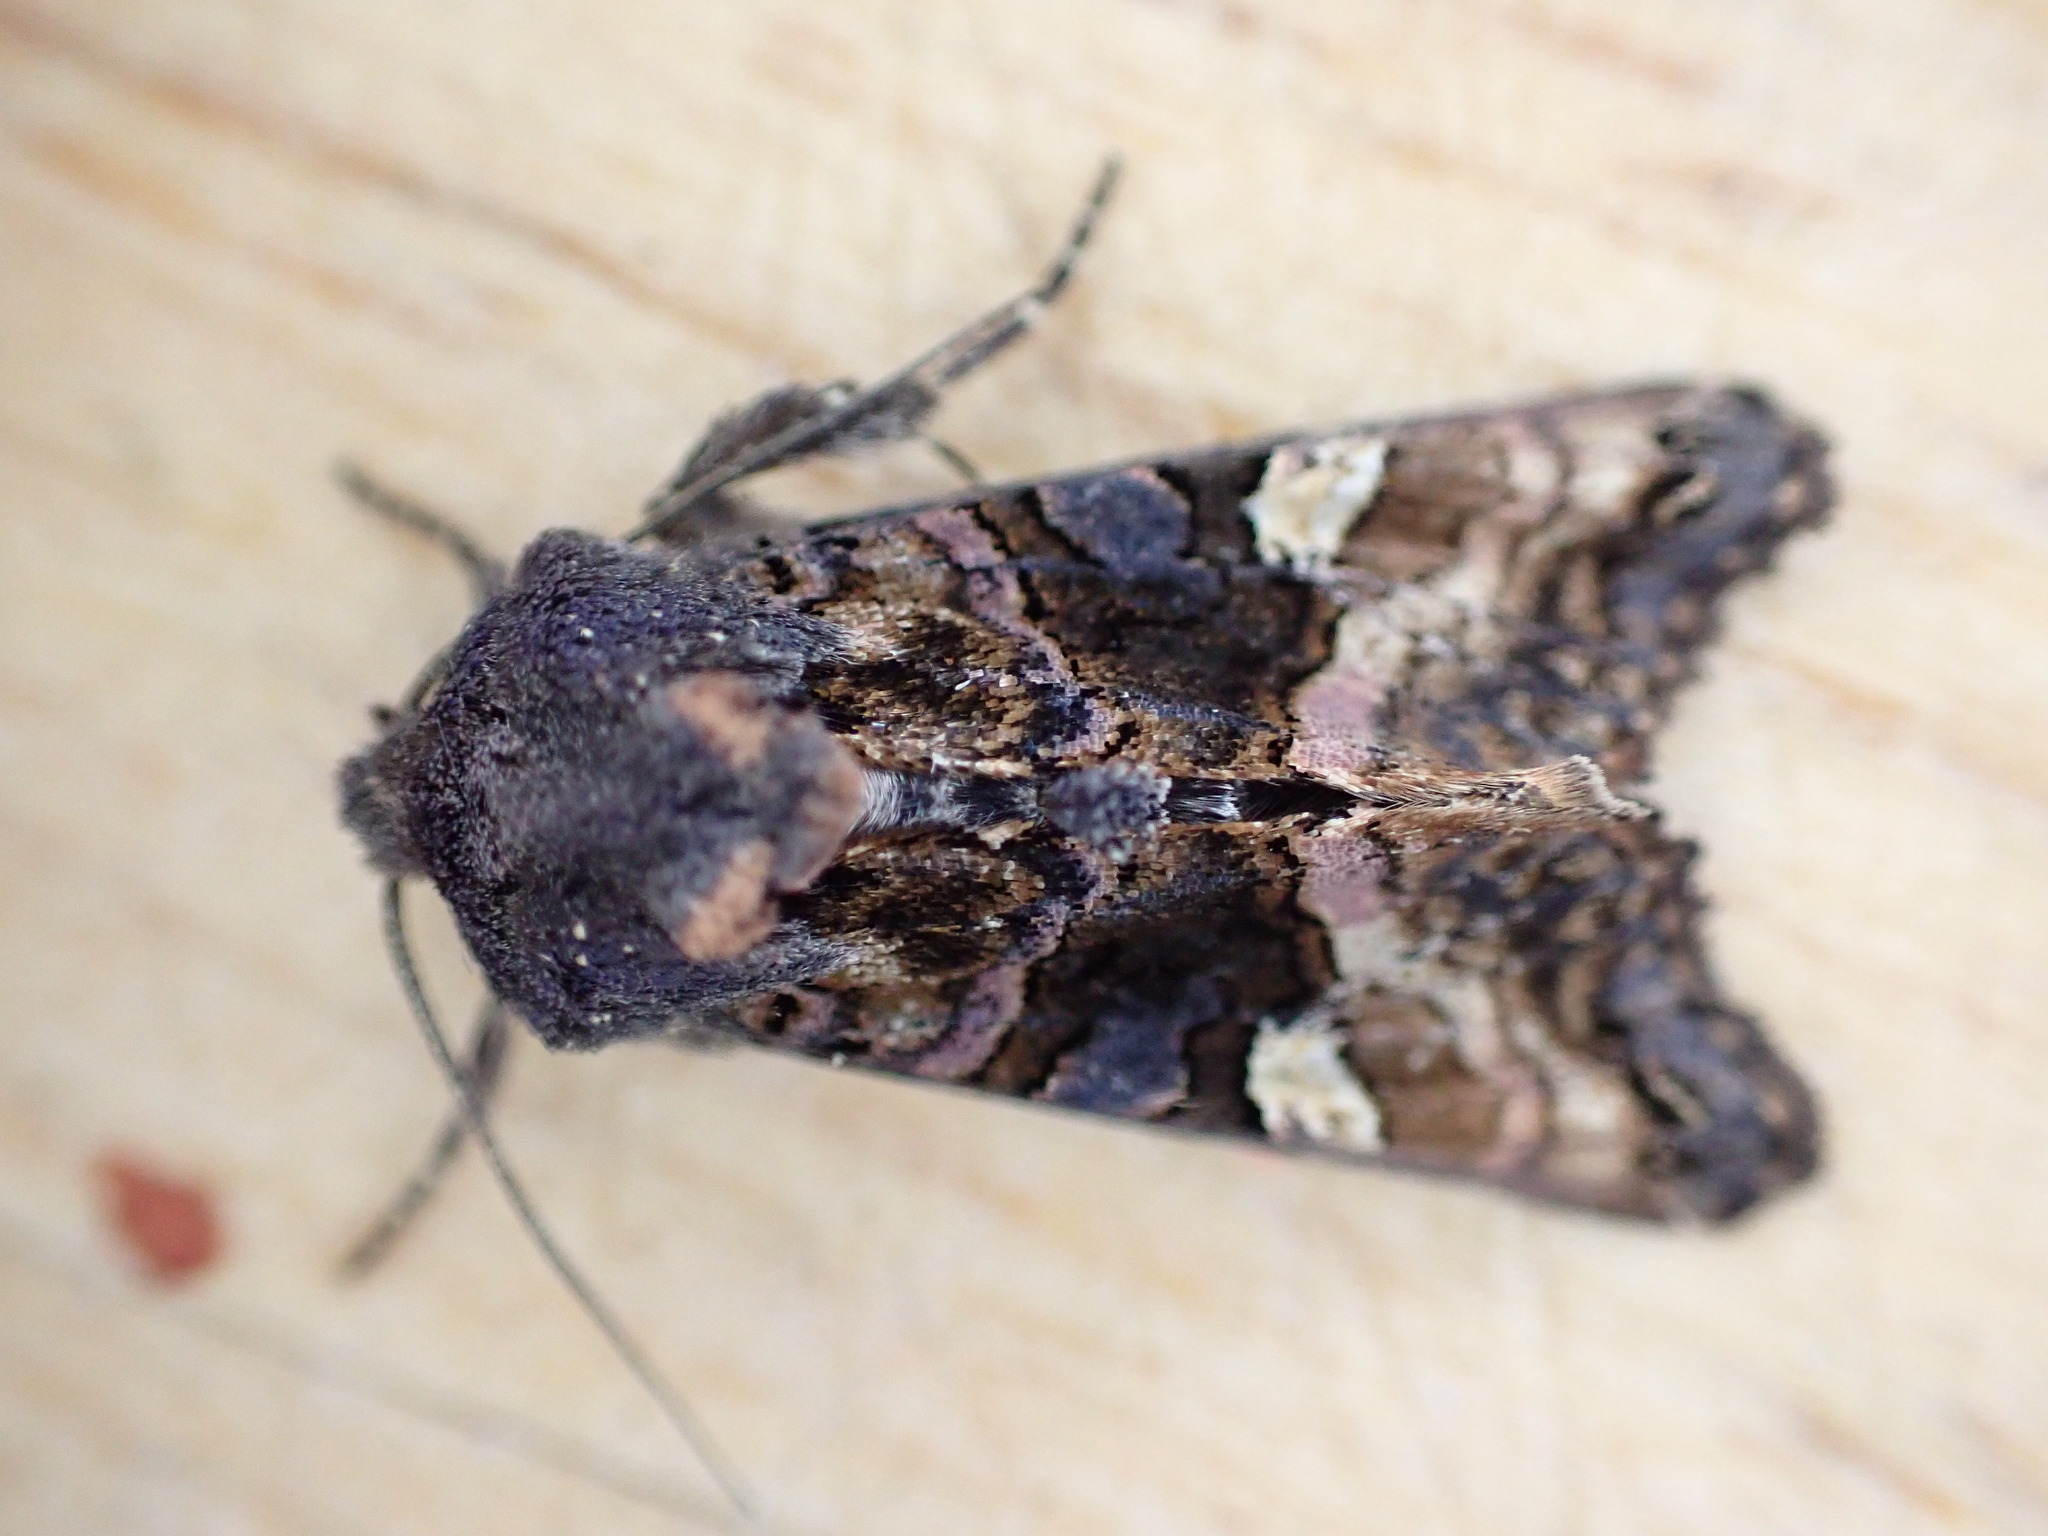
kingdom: Animalia
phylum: Arthropoda
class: Insecta
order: Lepidoptera
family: Noctuidae
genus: Euplexia
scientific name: Euplexia lucipara
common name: Small angle shades
